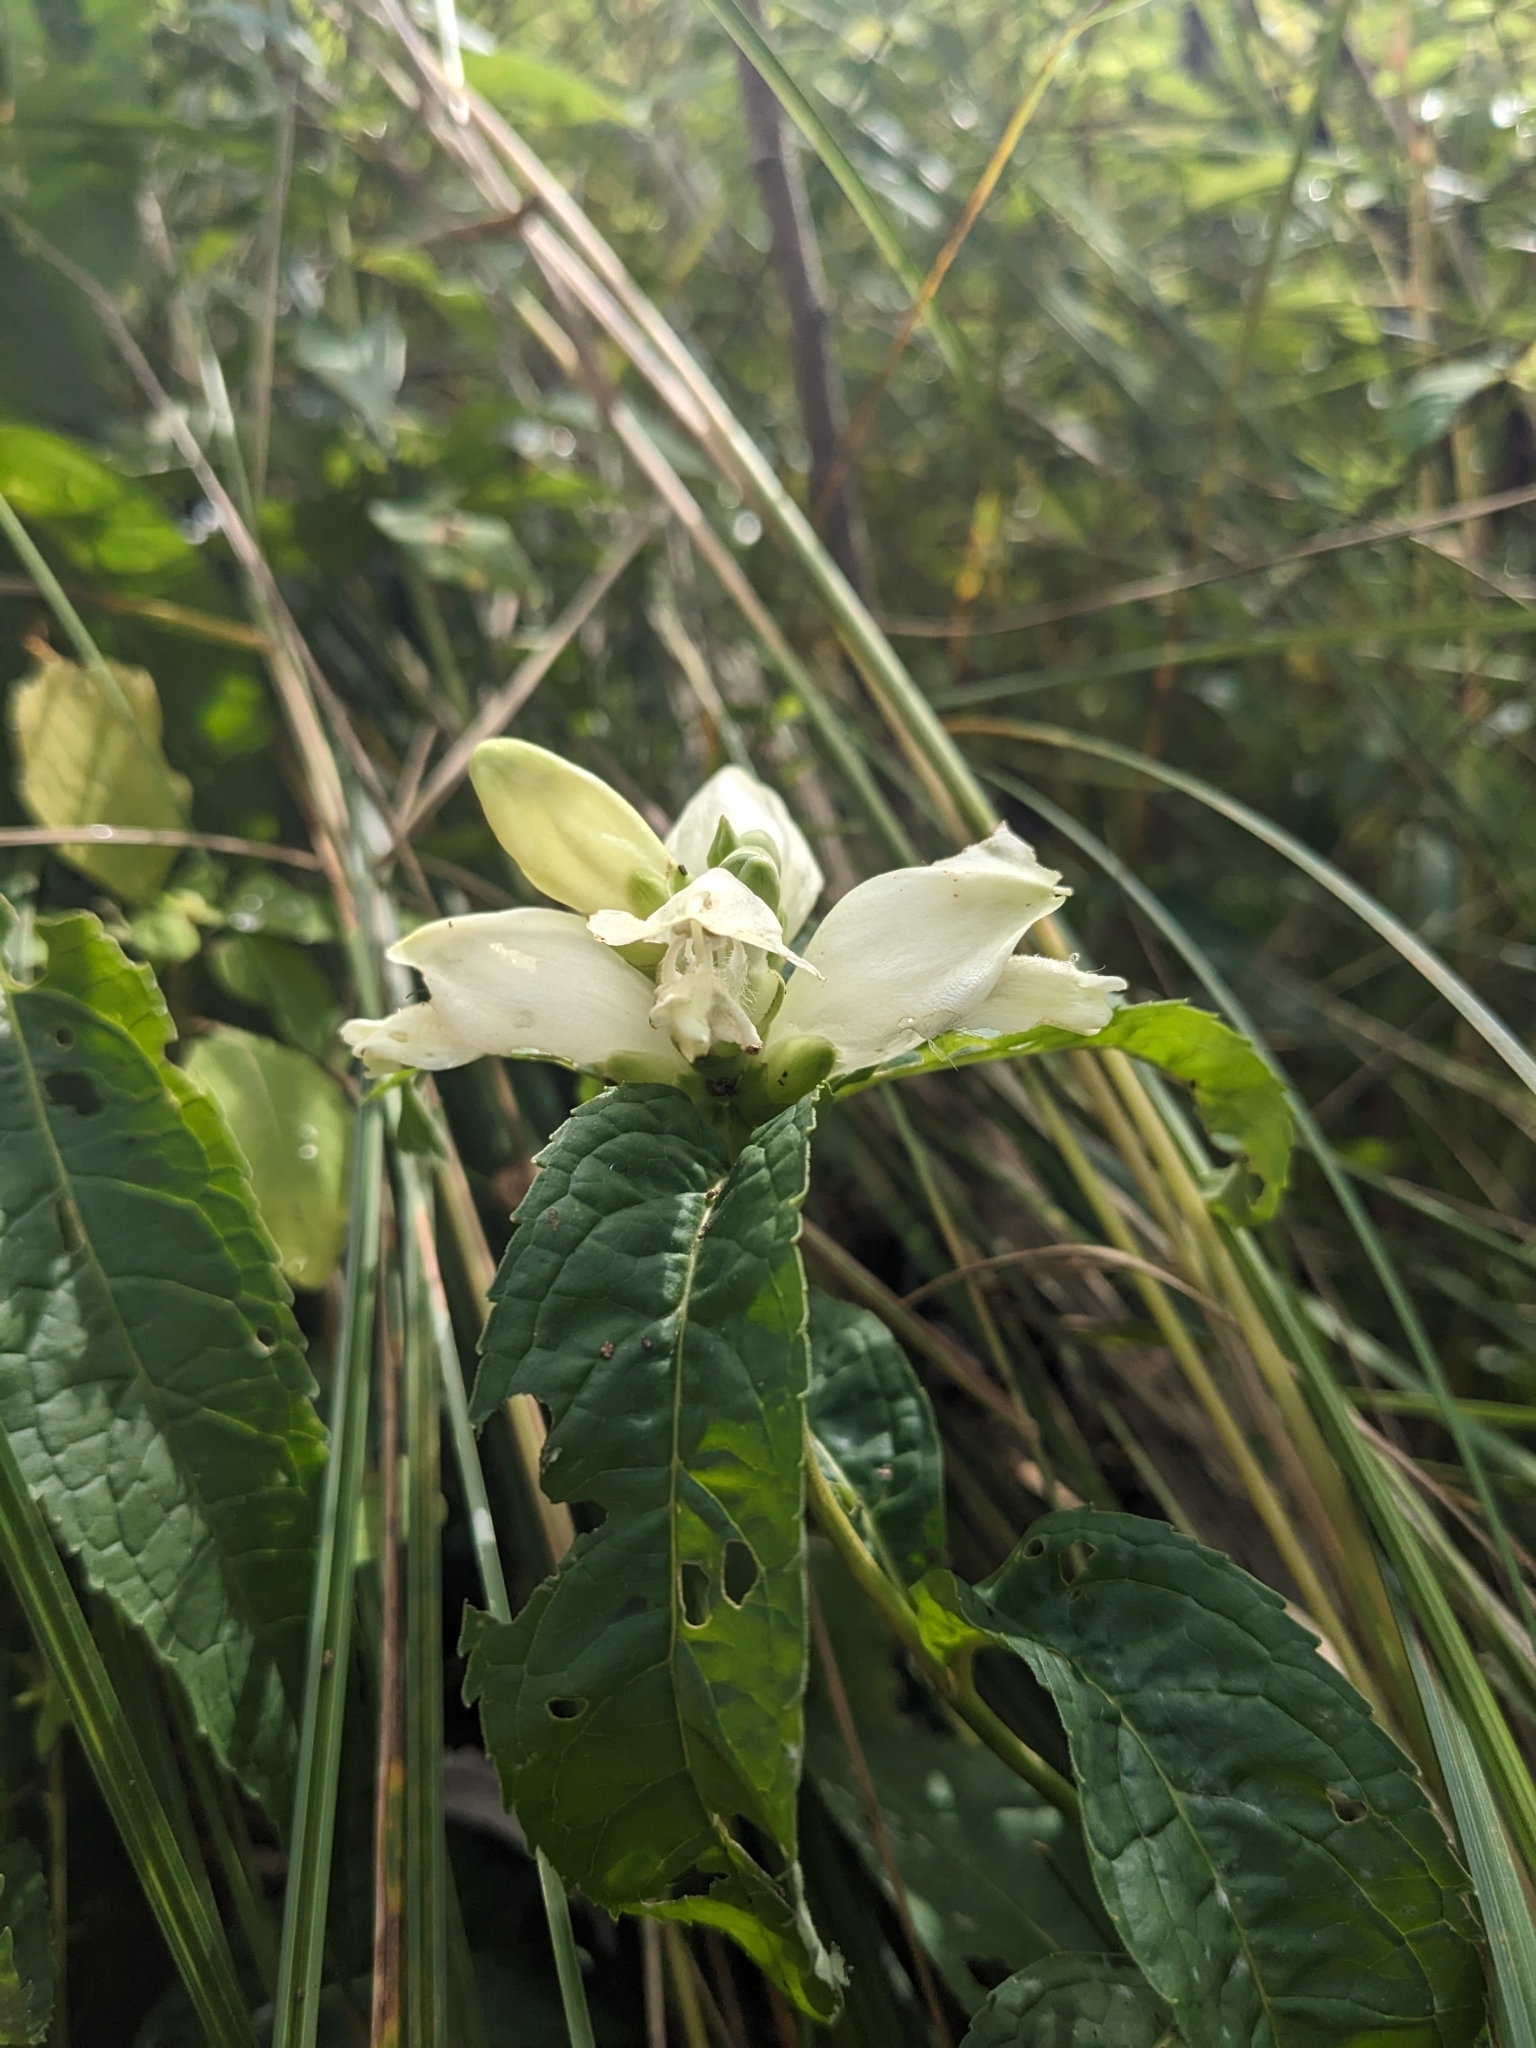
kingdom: Plantae
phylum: Tracheophyta
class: Magnoliopsida
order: Lamiales
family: Plantaginaceae
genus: Chelone
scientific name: Chelone glabra
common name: Snakehead
